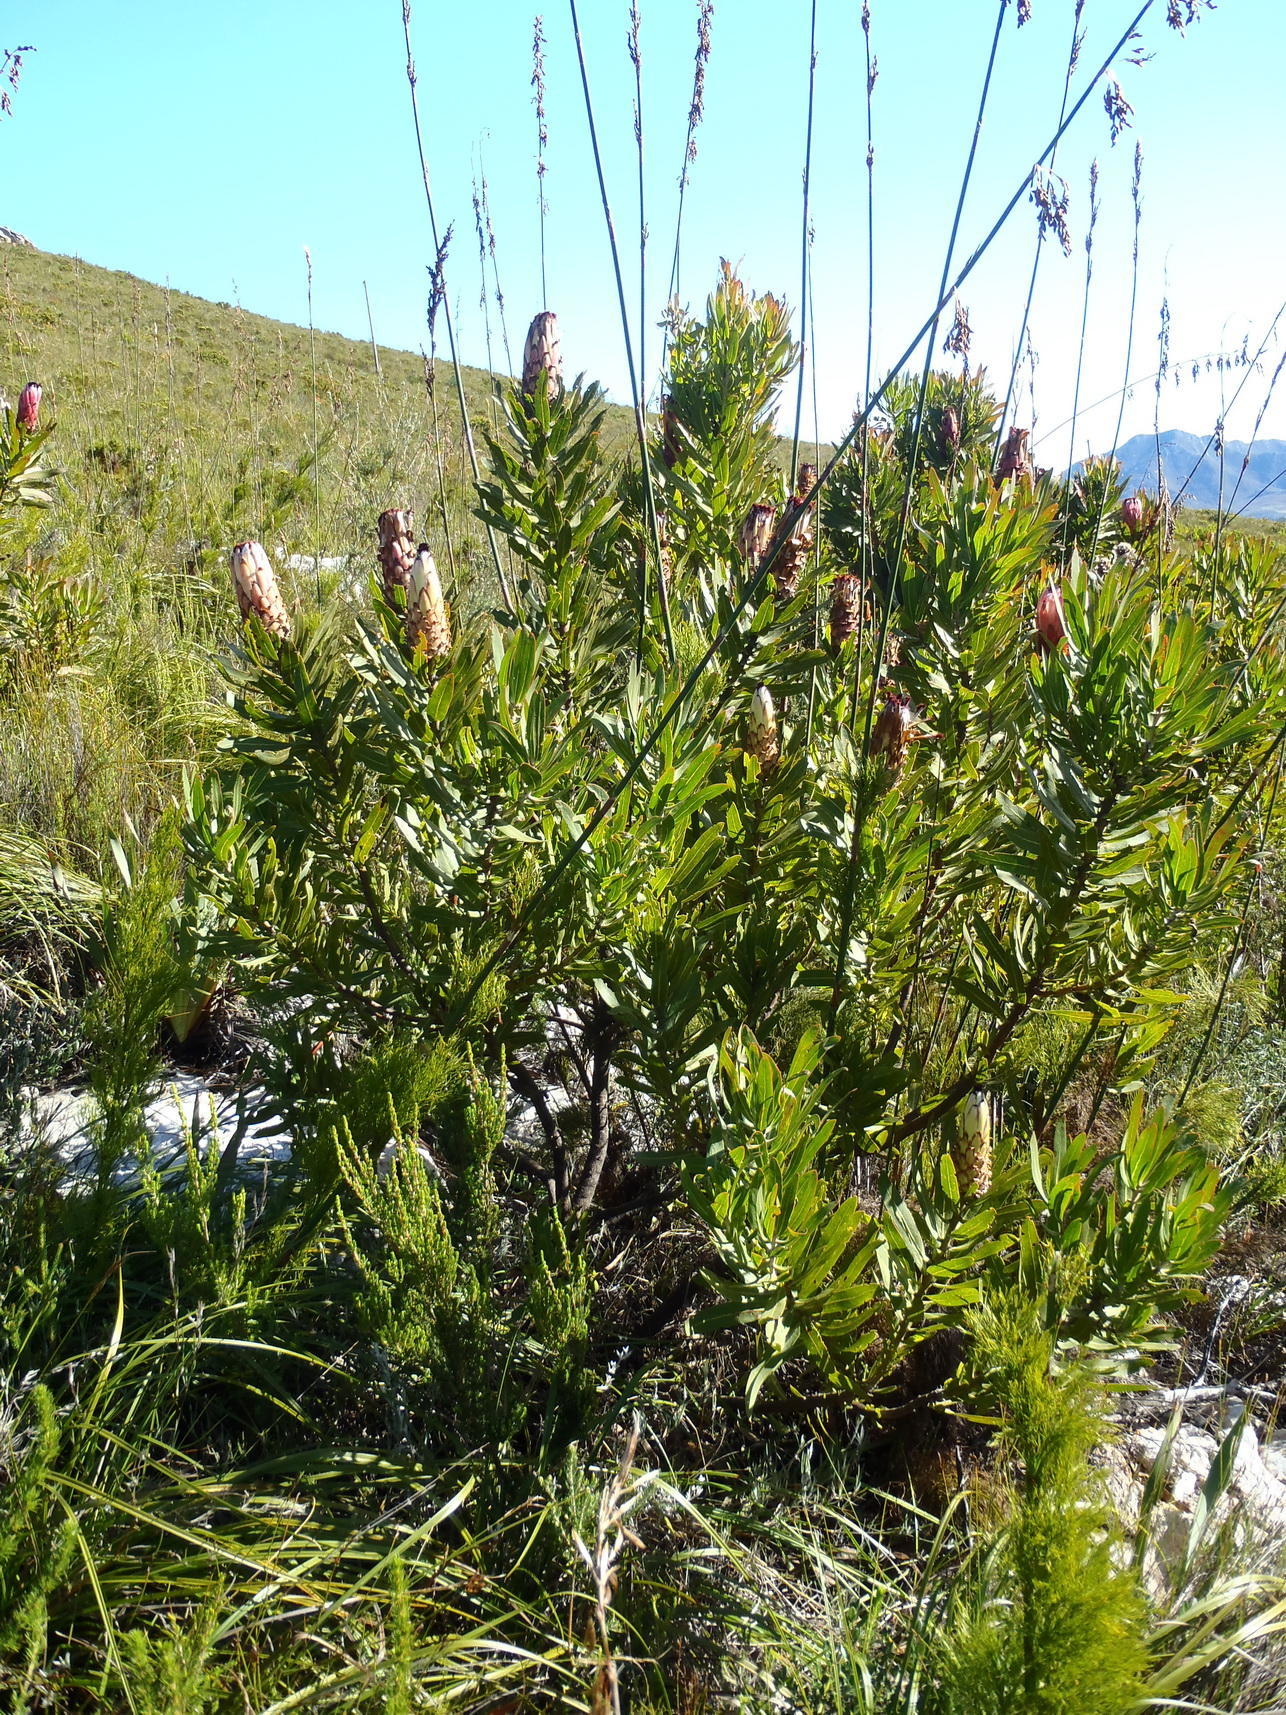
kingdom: Plantae
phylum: Tracheophyta
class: Magnoliopsida
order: Proteales
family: Proteaceae
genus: Protea
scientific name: Protea neriifolia
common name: Blue sugarbush
